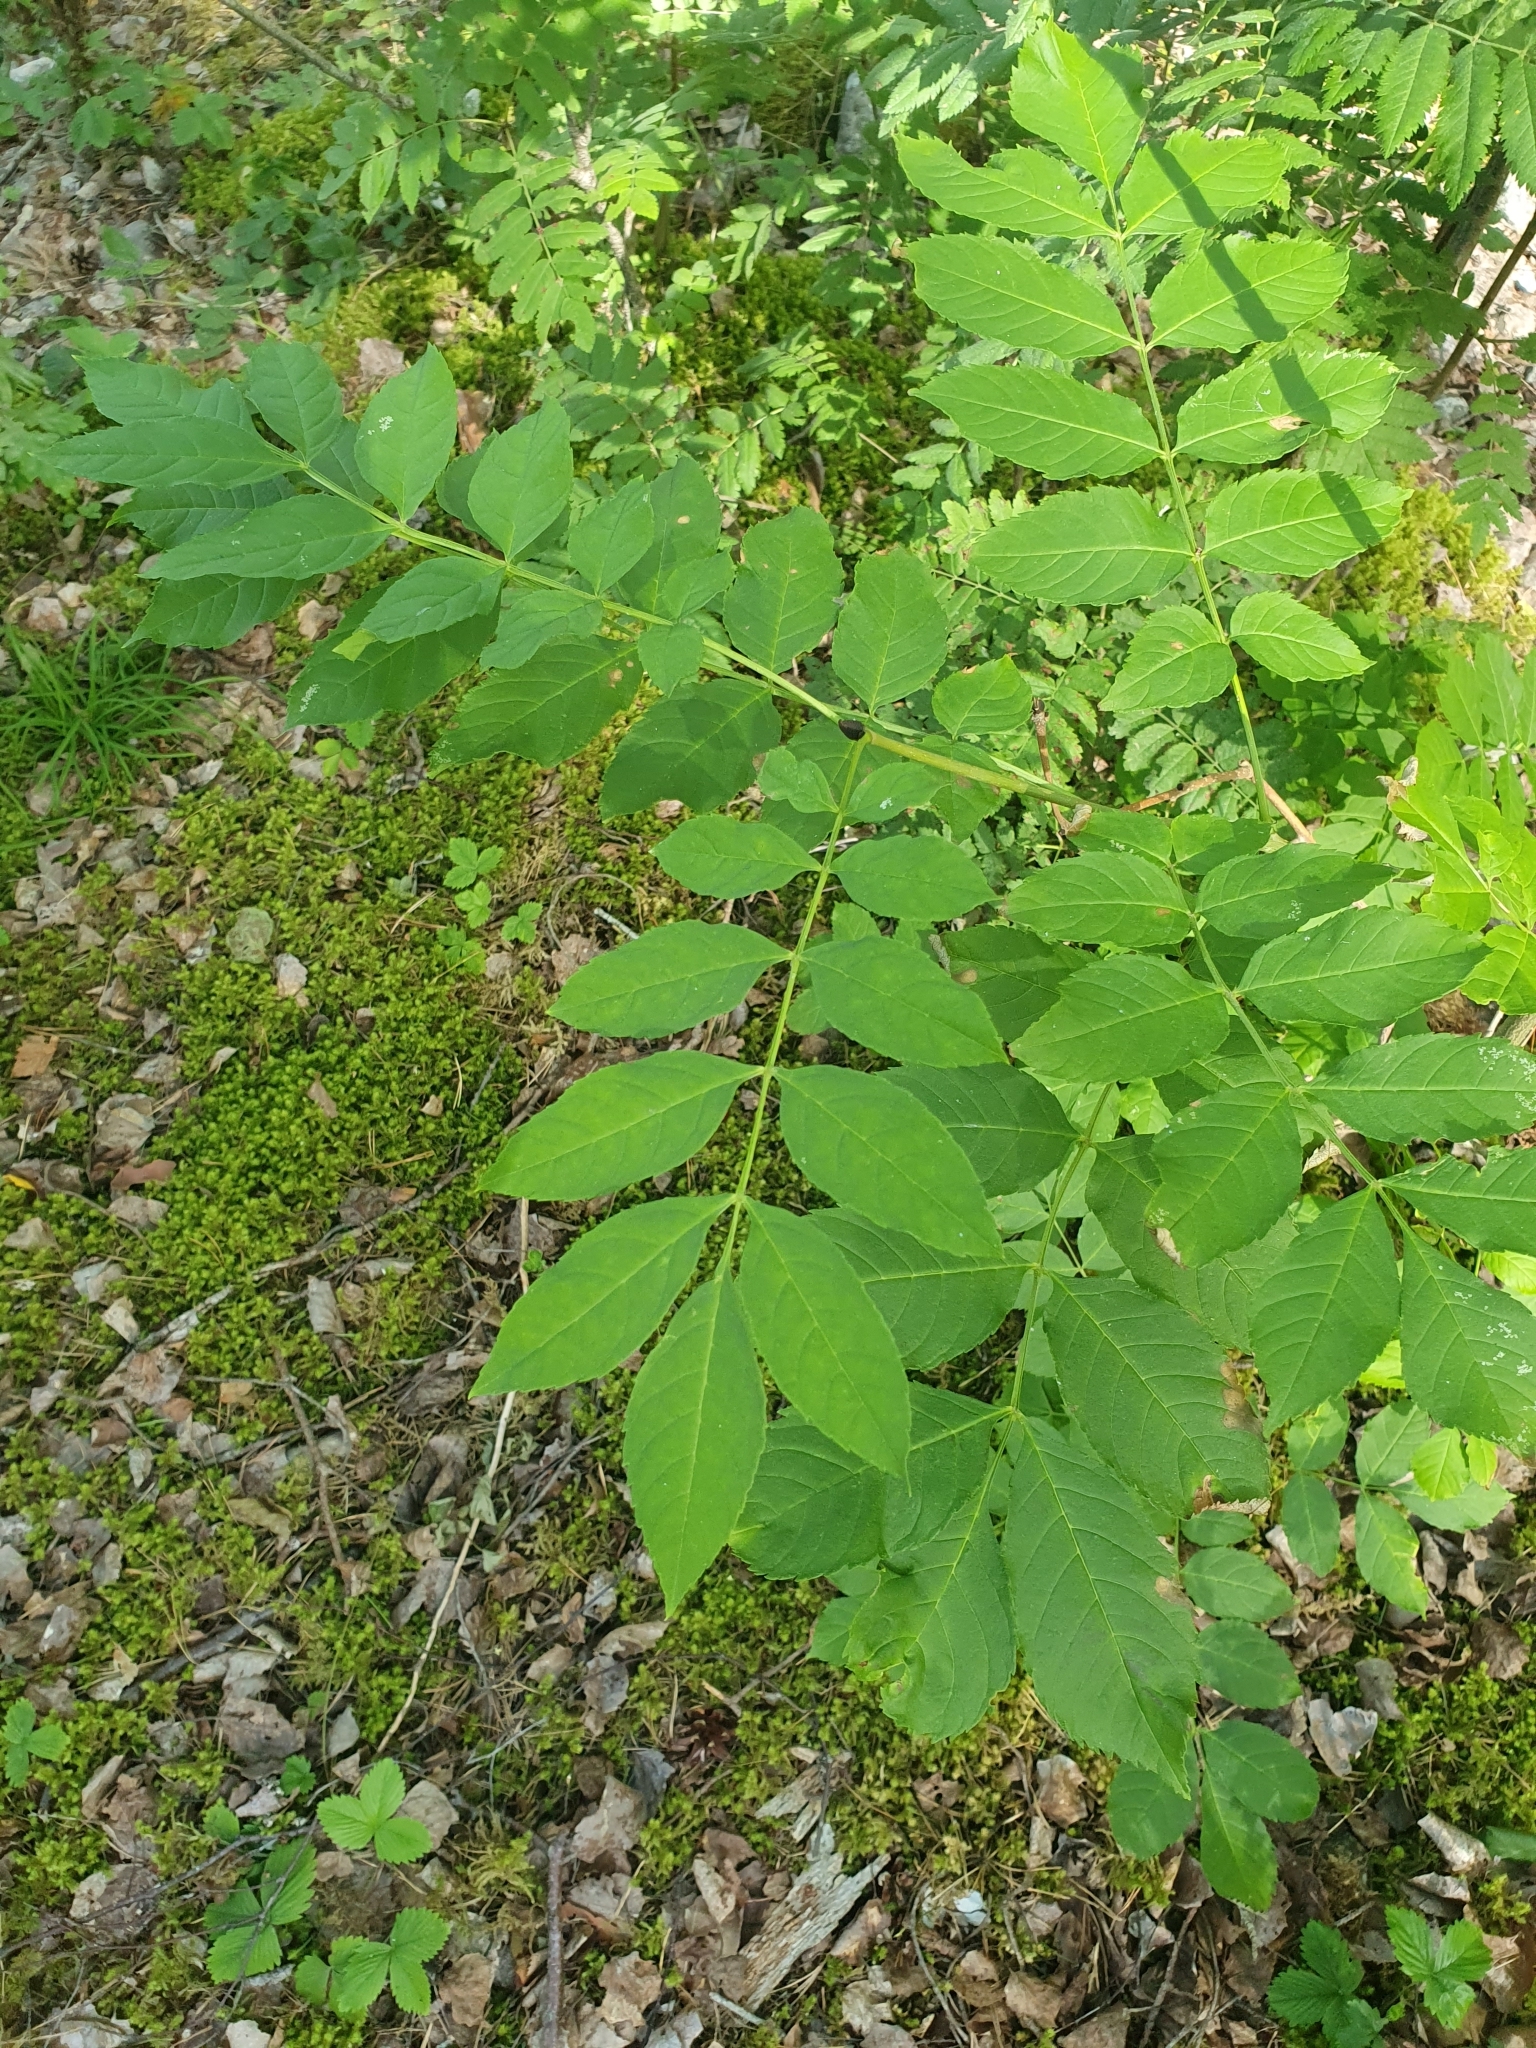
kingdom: Plantae
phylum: Tracheophyta
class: Magnoliopsida
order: Lamiales
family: Oleaceae
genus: Fraxinus
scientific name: Fraxinus excelsior
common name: European ash
